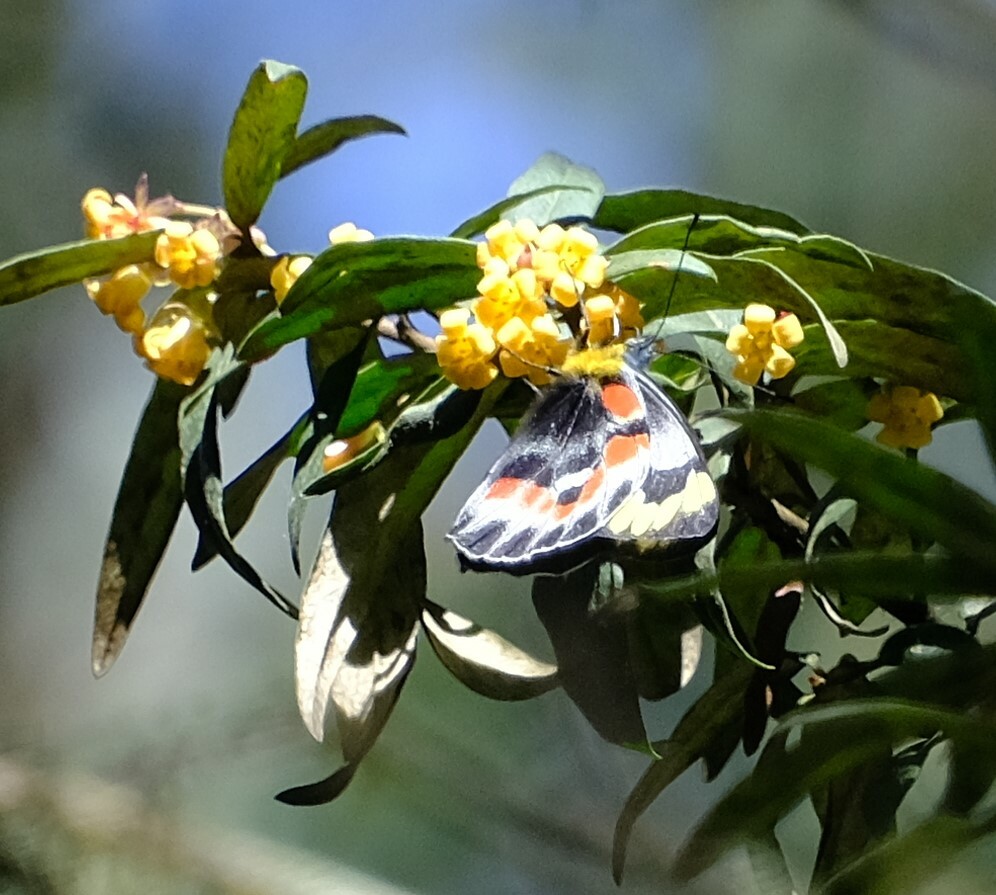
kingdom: Animalia
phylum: Arthropoda
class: Insecta
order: Lepidoptera
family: Pieridae
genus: Delias
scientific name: Delias harpalyce
